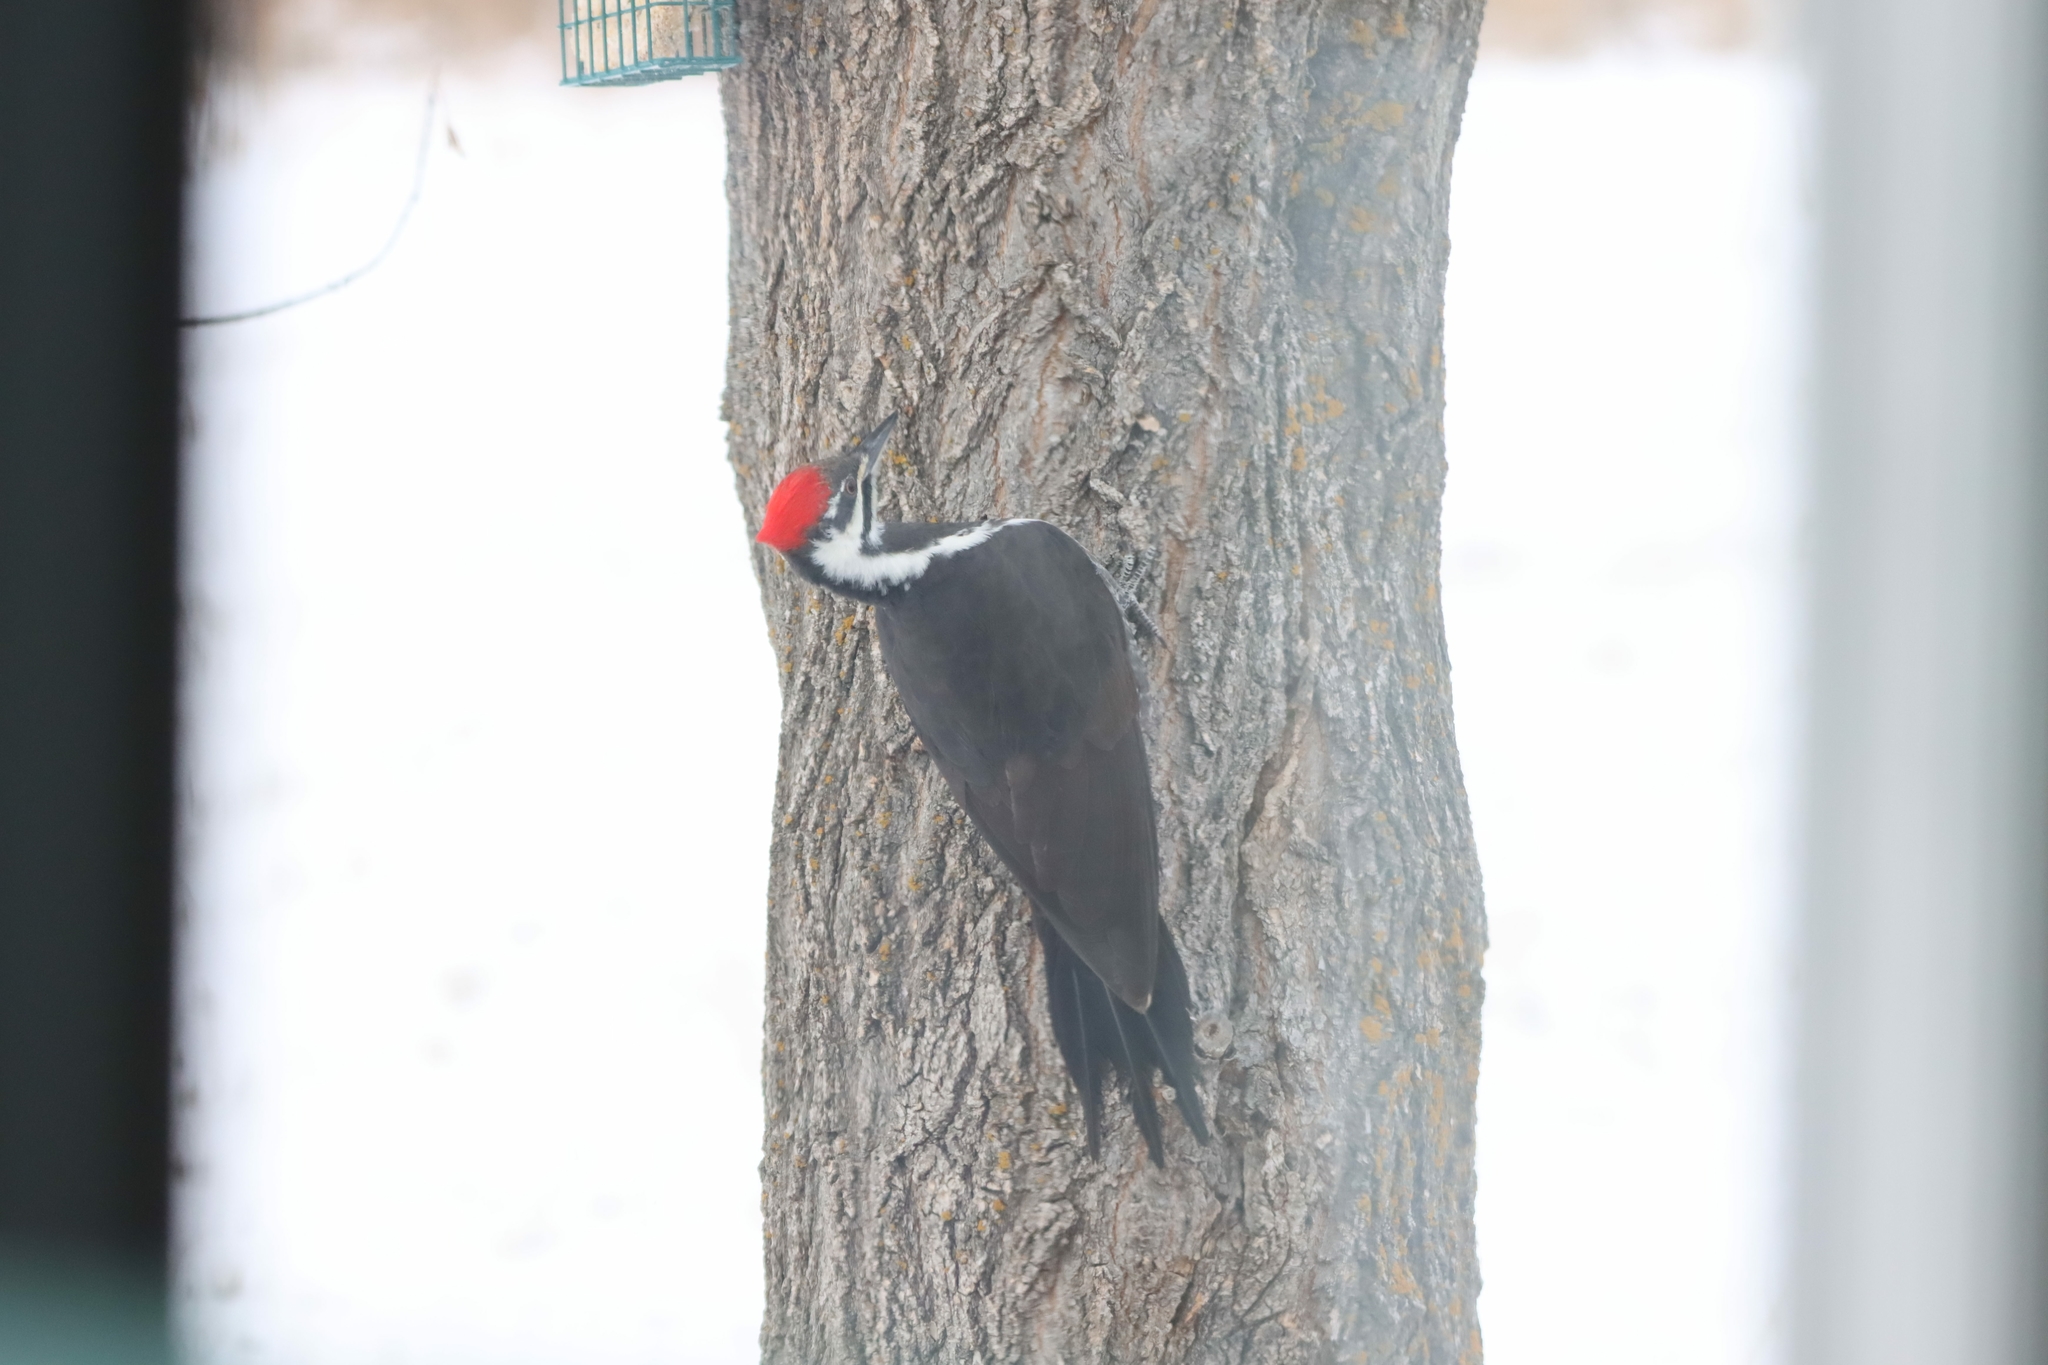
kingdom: Animalia
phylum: Chordata
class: Aves
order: Piciformes
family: Picidae
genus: Dryocopus
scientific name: Dryocopus pileatus
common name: Pileated woodpecker
